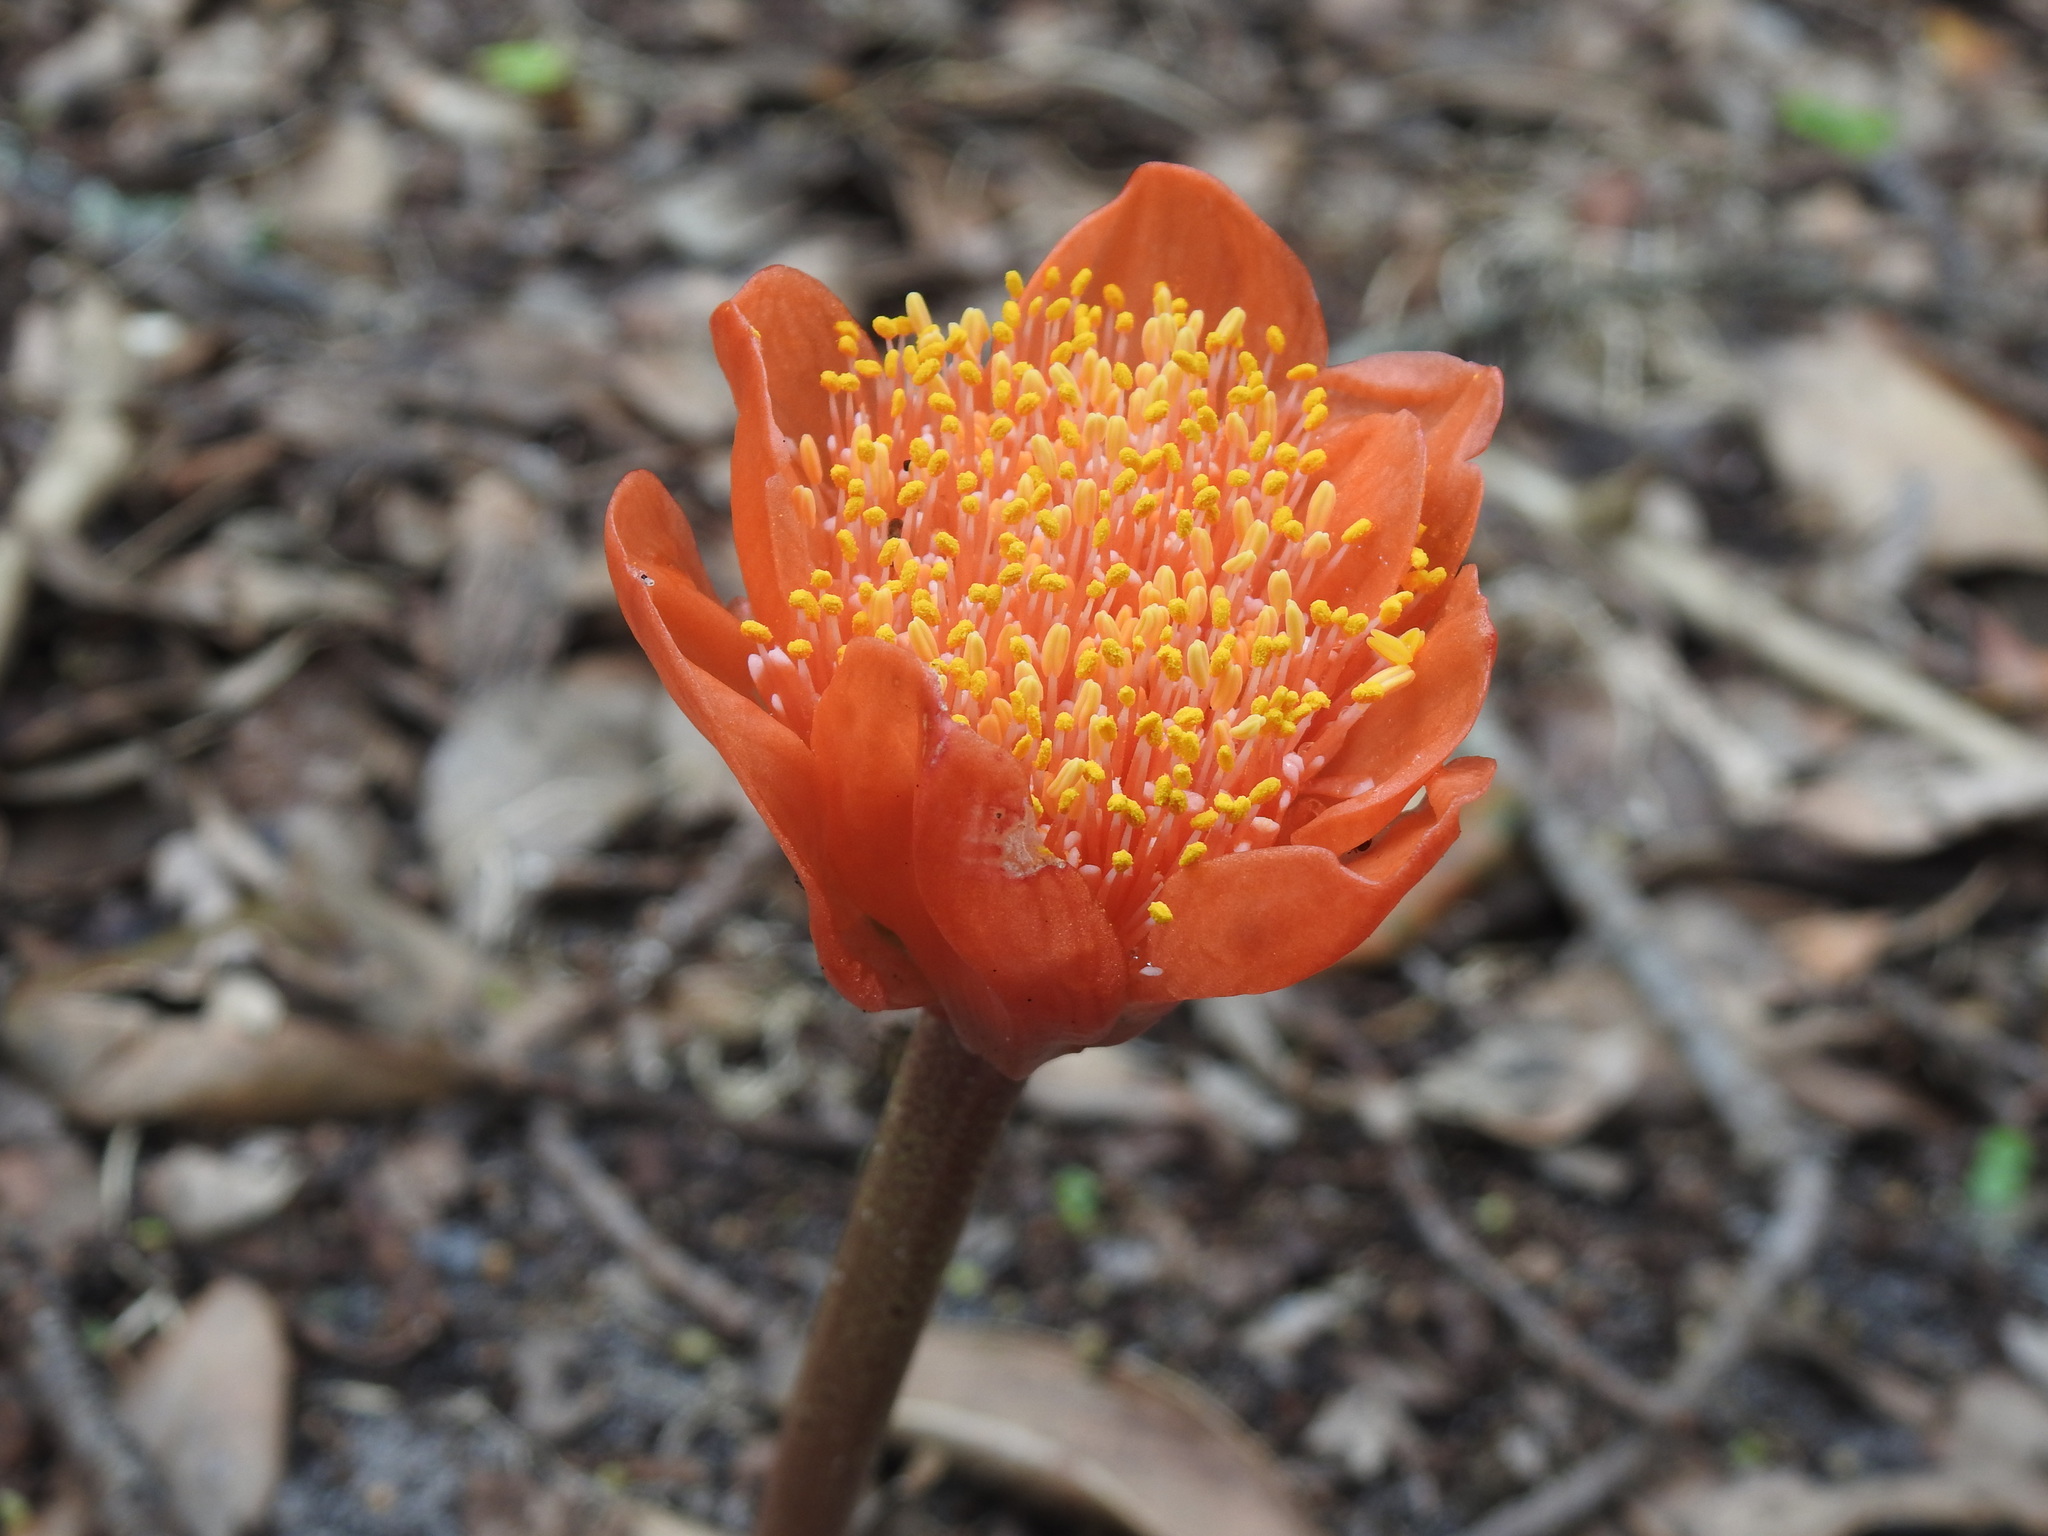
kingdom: Plantae
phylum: Tracheophyta
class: Liliopsida
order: Asparagales
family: Amaryllidaceae
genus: Haemanthus
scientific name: Haemanthus coccineus
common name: Cape-tulip
